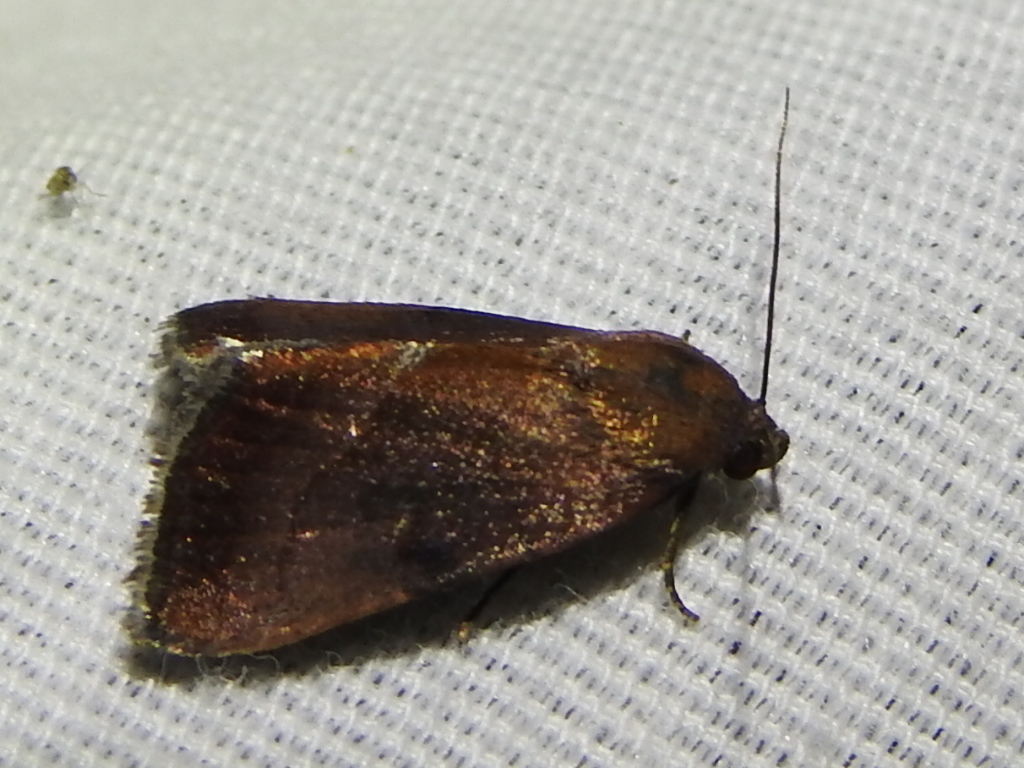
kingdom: Animalia
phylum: Arthropoda
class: Insecta
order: Lepidoptera
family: Noctuidae
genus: Galgula
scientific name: Galgula partita
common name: Wedgeling
